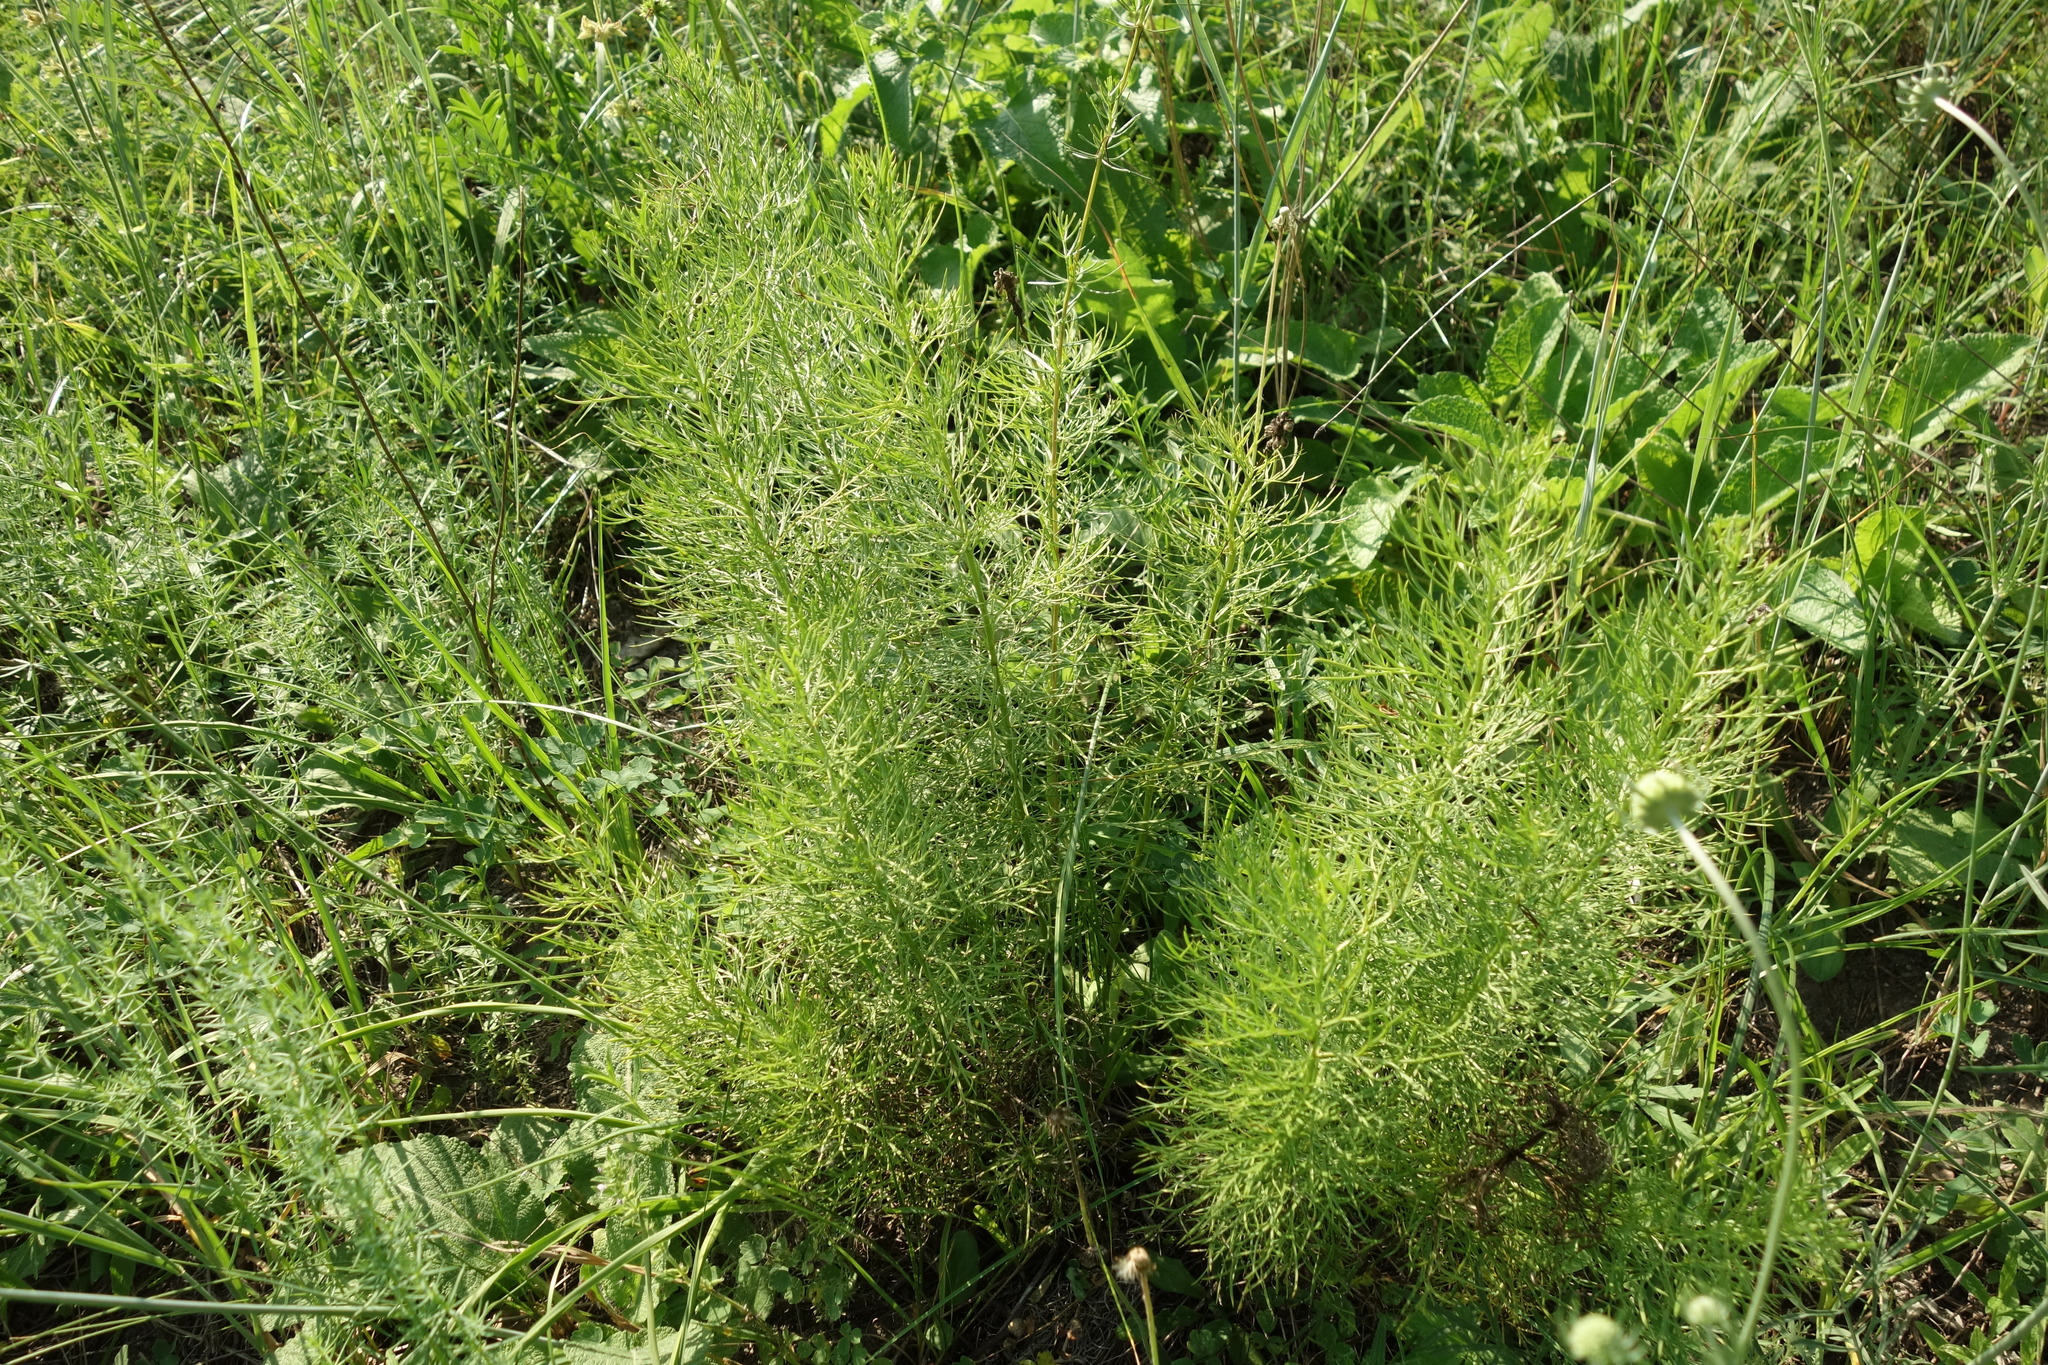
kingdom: Plantae
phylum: Tracheophyta
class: Magnoliopsida
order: Ranunculales
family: Ranunculaceae
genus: Adonis
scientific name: Adonis vernalis
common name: Yellow pheasants-eye
